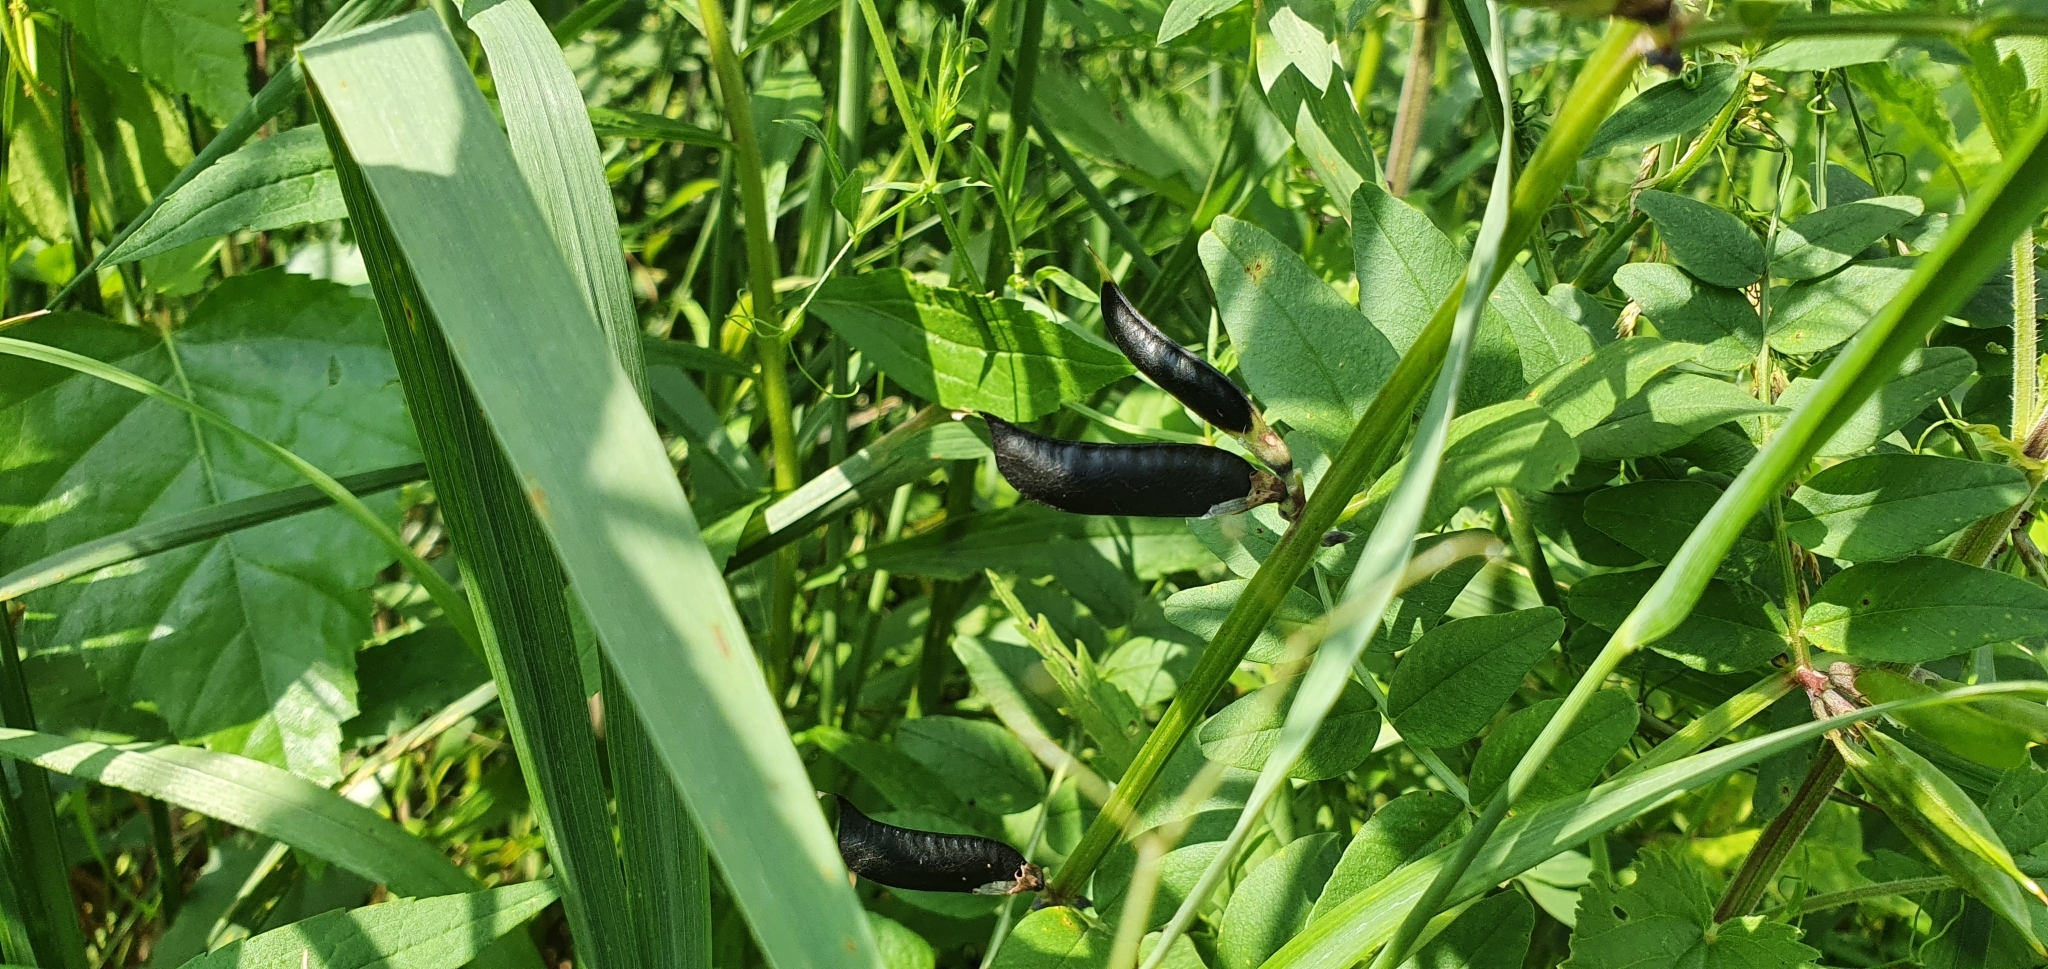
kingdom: Plantae
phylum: Tracheophyta
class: Magnoliopsida
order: Fabales
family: Fabaceae
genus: Vicia
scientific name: Vicia sepium
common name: Bush vetch
